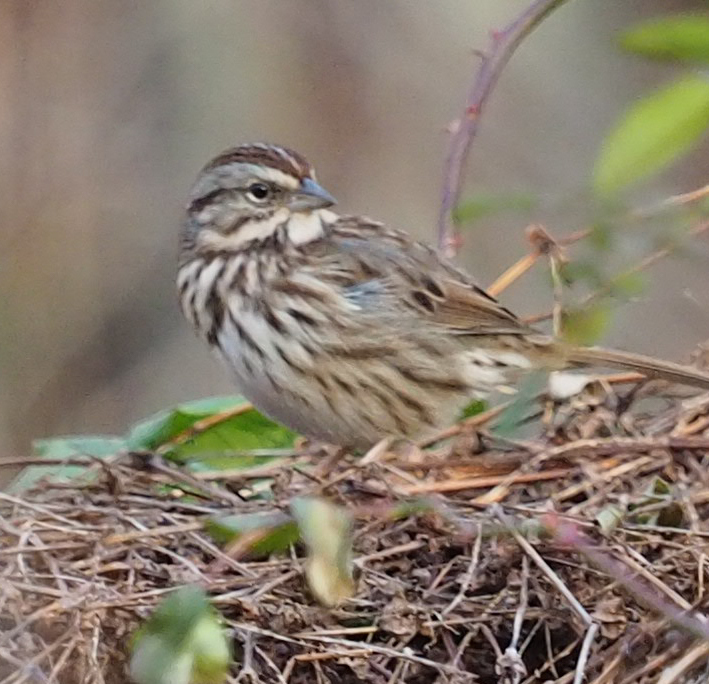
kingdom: Animalia
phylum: Chordata
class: Aves
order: Passeriformes
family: Passerellidae
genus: Melospiza
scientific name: Melospiza melodia
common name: Song sparrow
